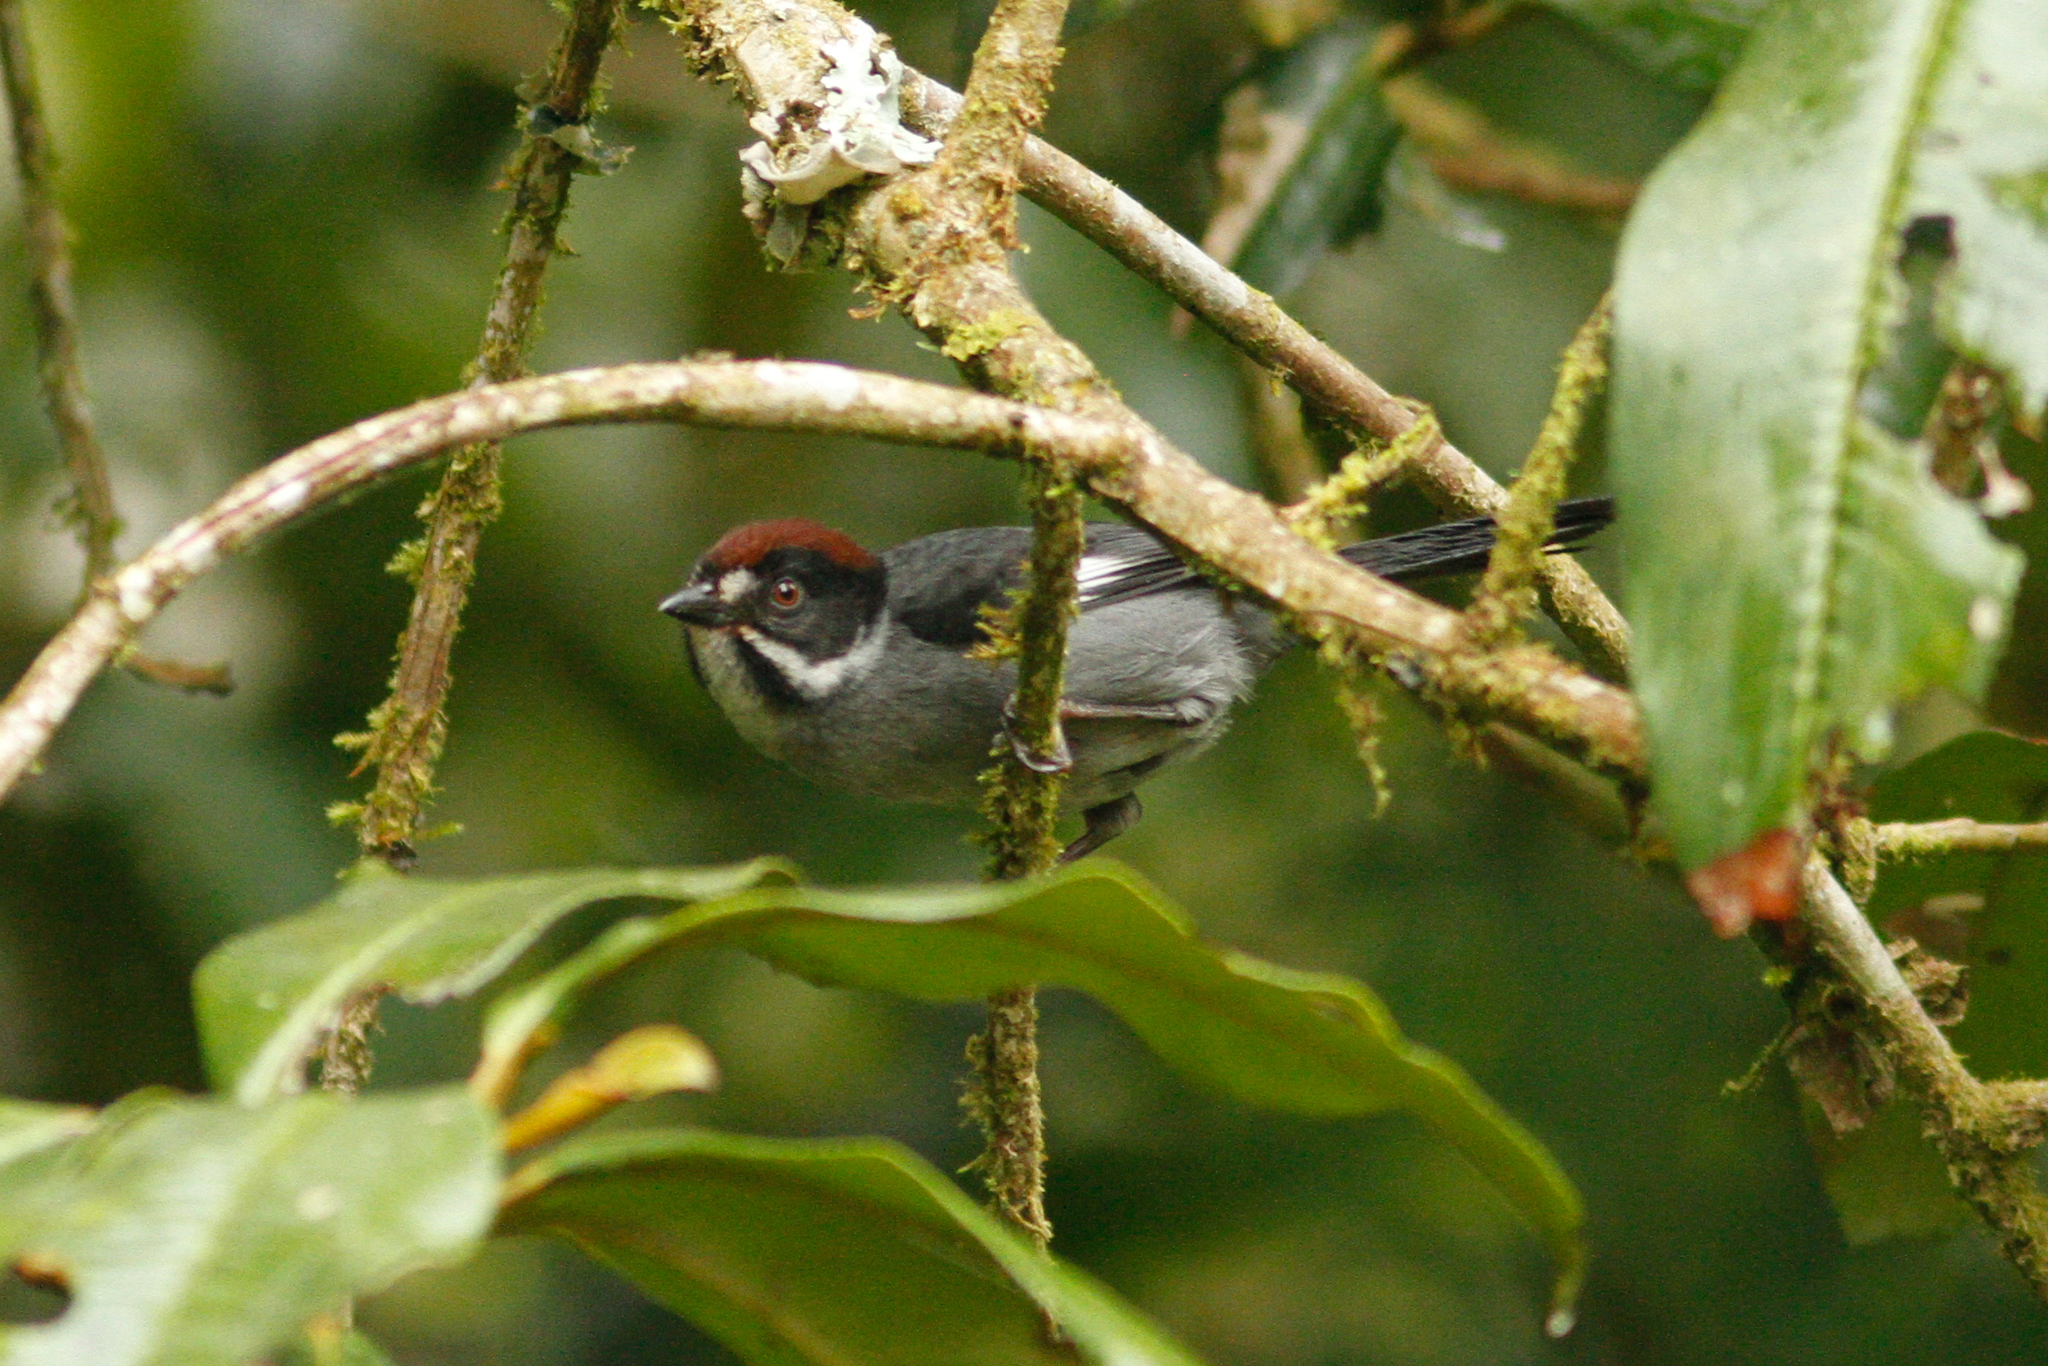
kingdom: Animalia
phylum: Chordata
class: Aves
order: Passeriformes
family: Passerellidae
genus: Atlapetes
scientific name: Atlapetes schistaceus
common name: Slaty brushfinch
